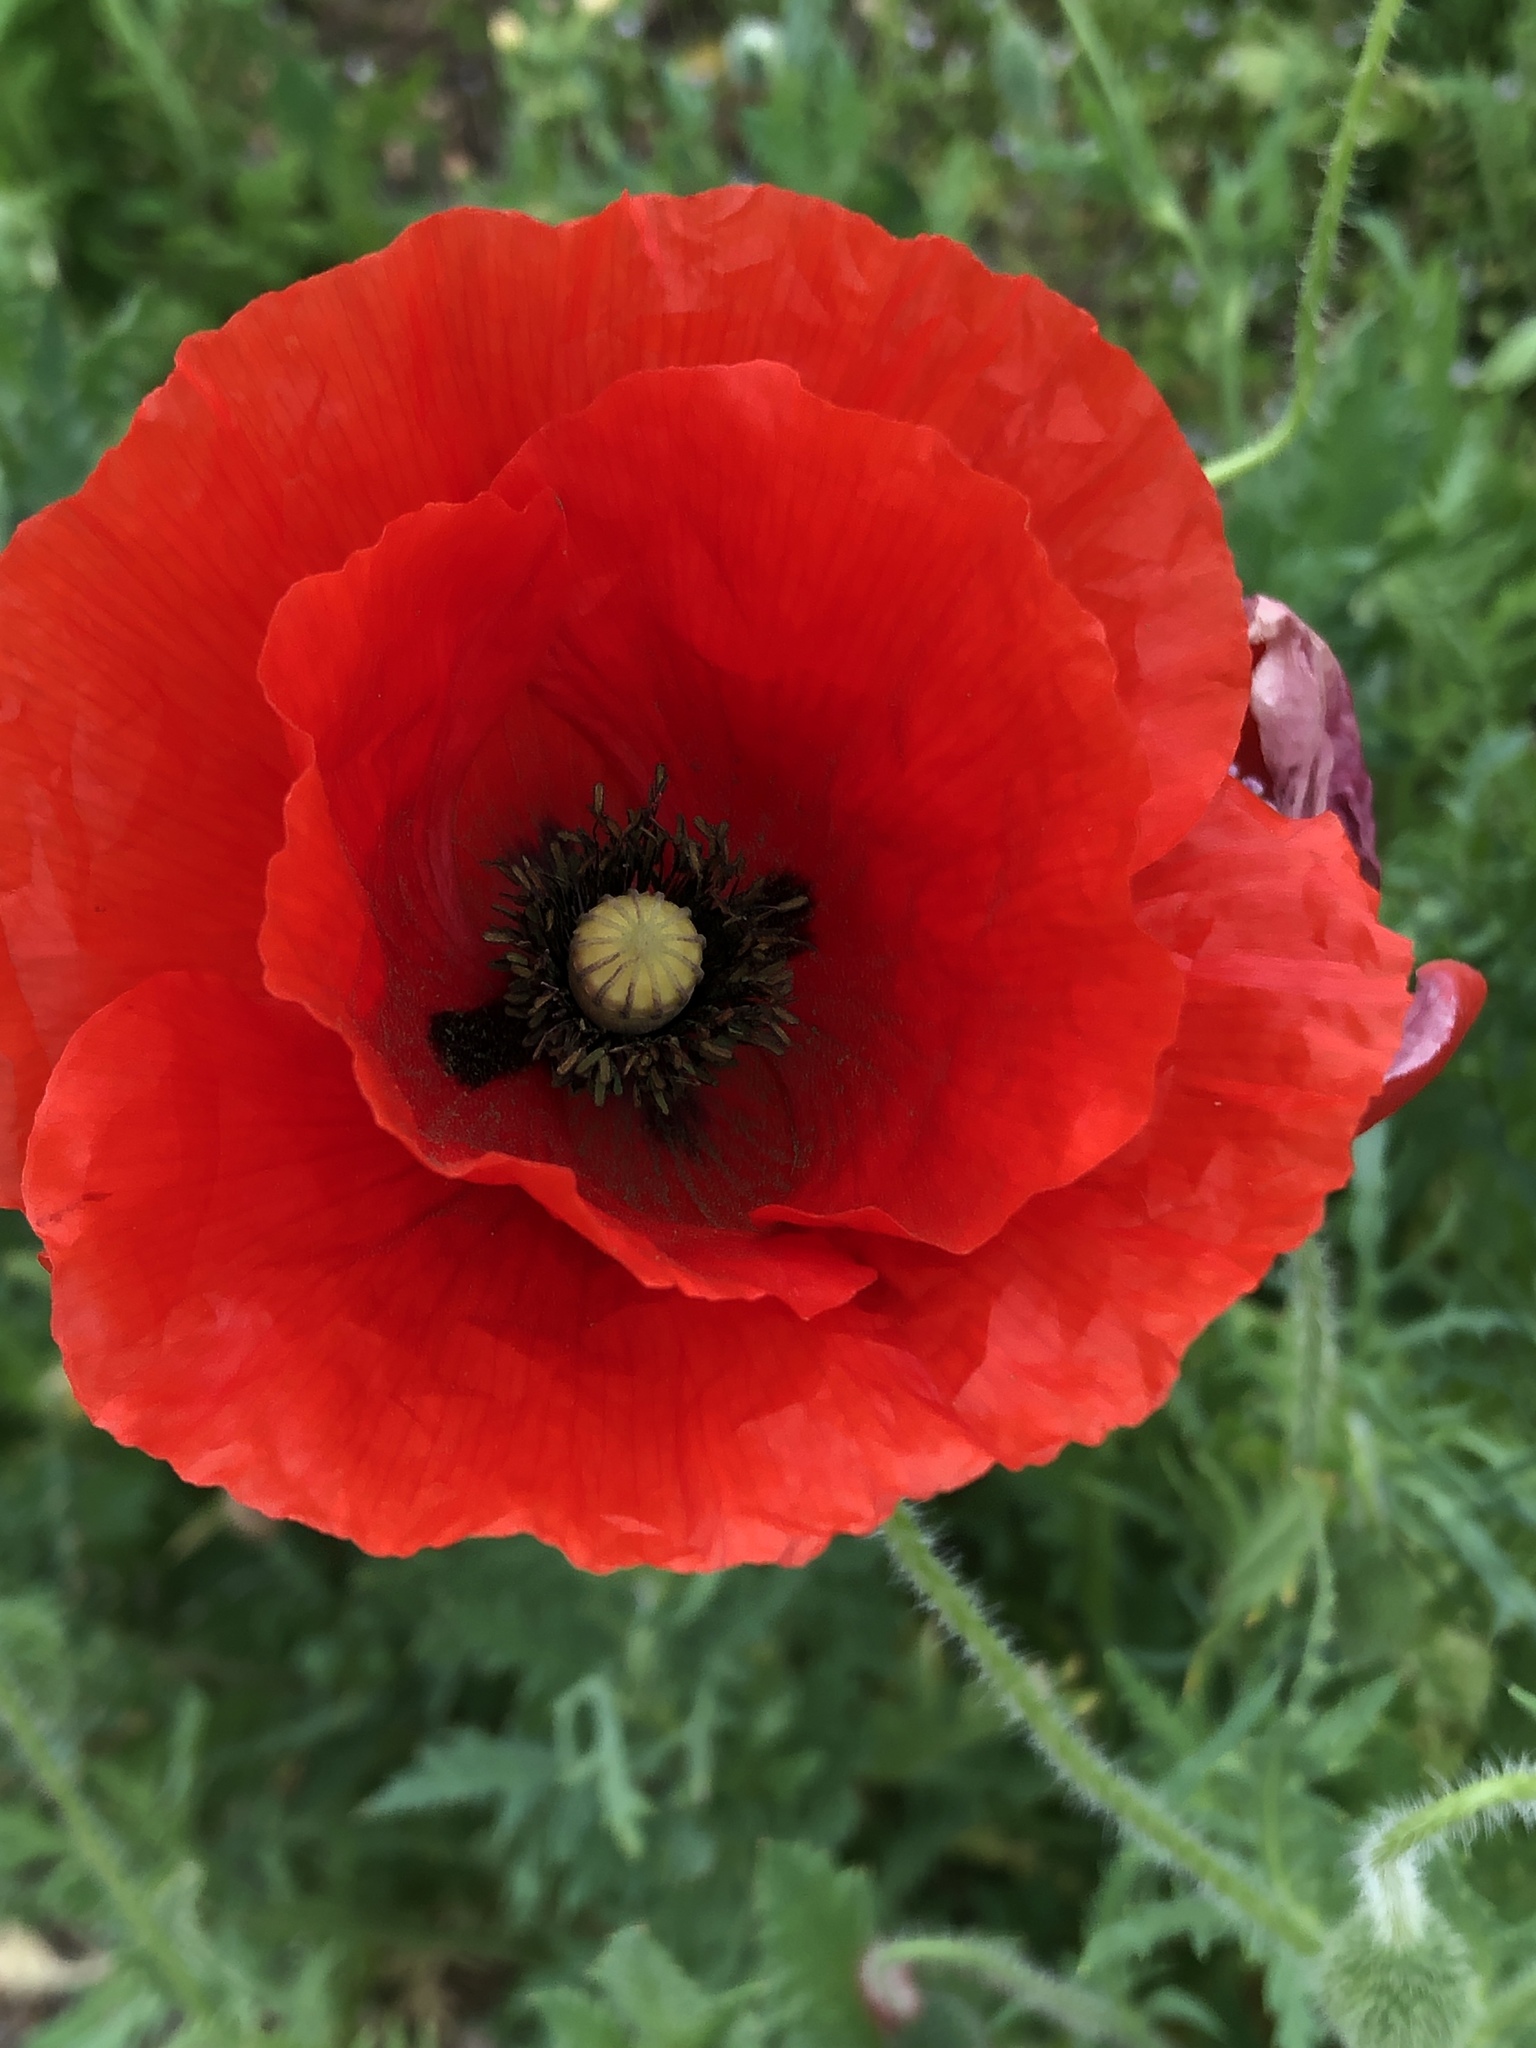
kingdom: Plantae
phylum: Tracheophyta
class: Magnoliopsida
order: Ranunculales
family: Papaveraceae
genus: Papaver
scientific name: Papaver rhoeas
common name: Corn poppy
